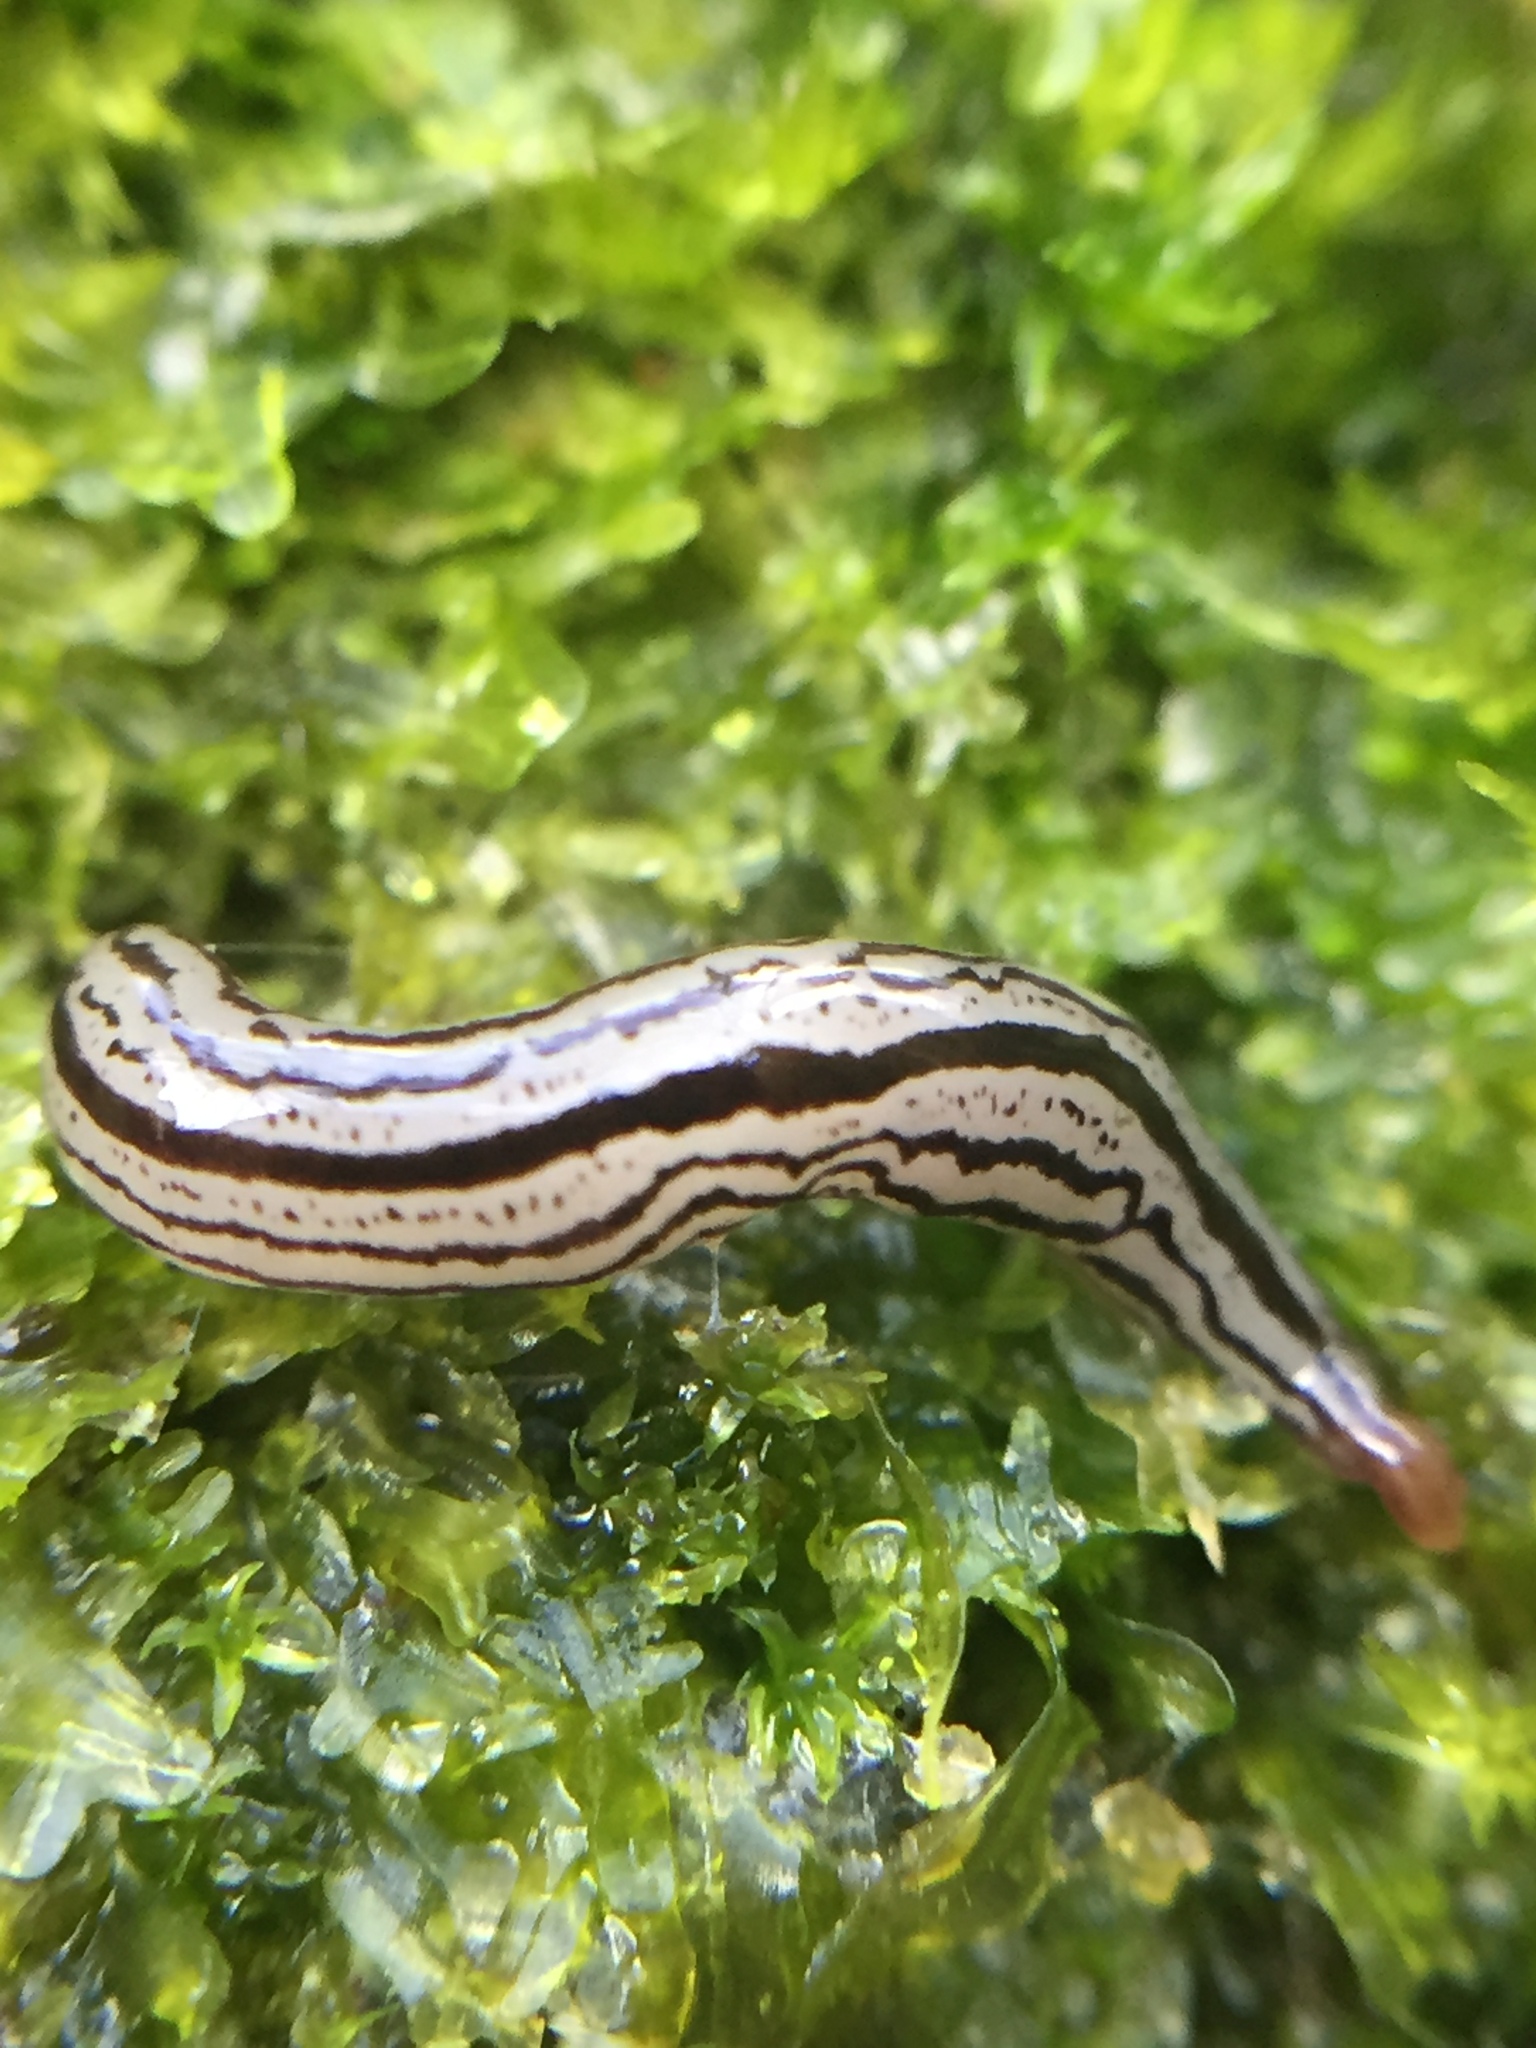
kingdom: Animalia
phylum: Platyhelminthes
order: Tricladida
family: Geoplanidae
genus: Artioposthia
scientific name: Artioposthia exulans
